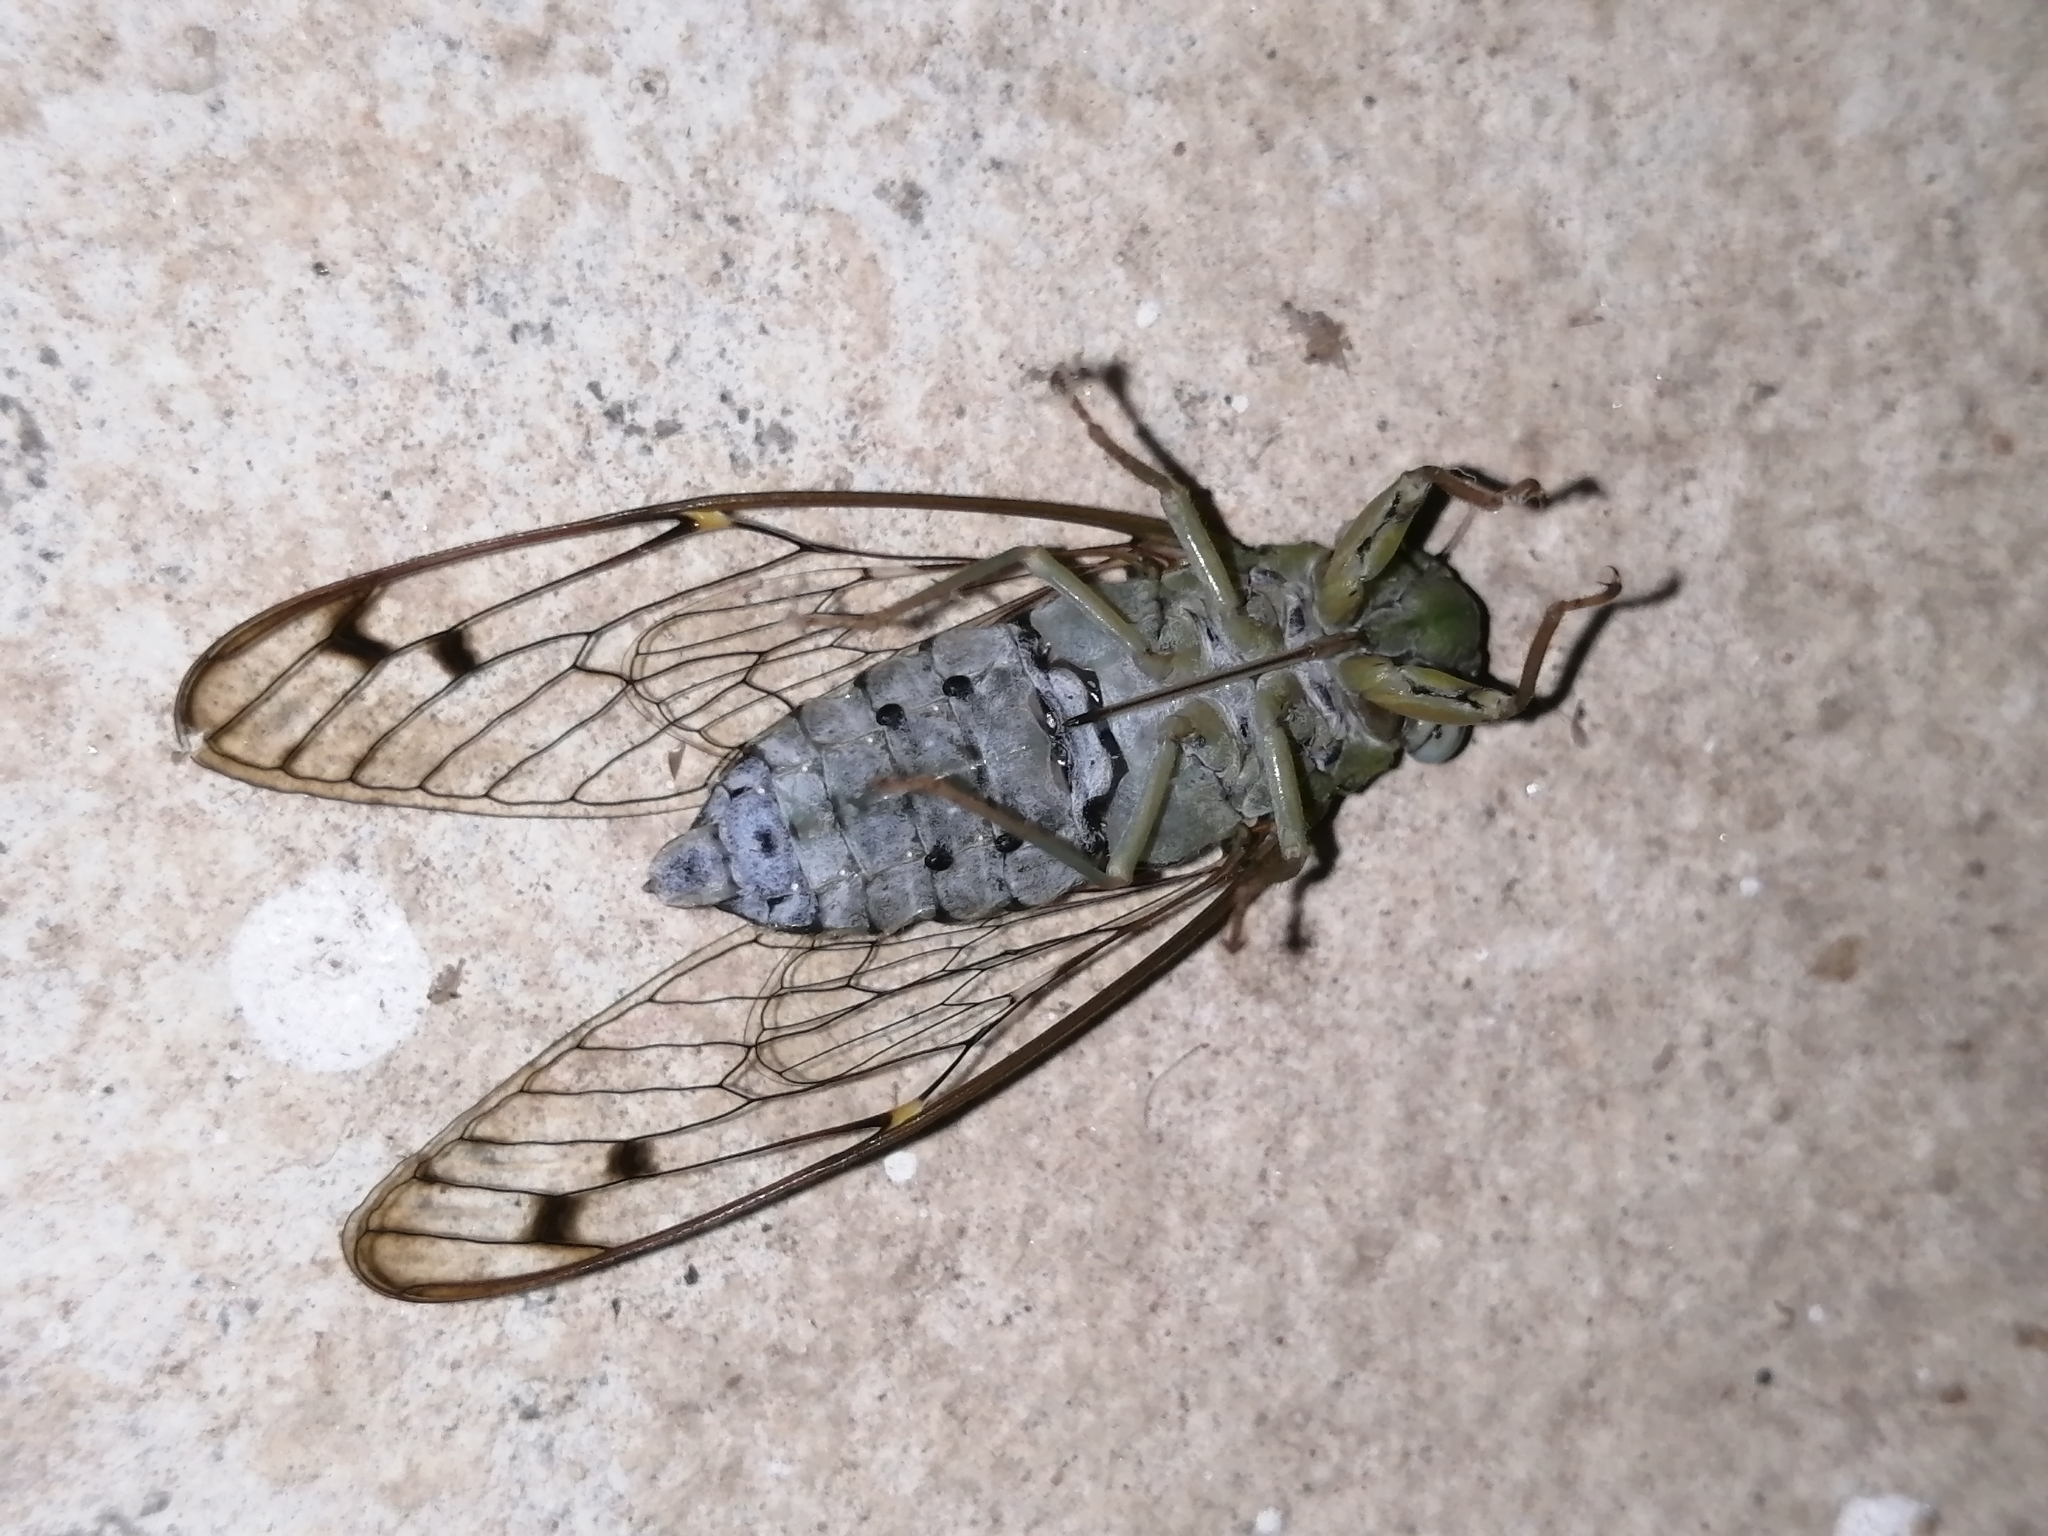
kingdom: Animalia
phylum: Arthropoda
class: Insecta
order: Hemiptera
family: Cicadidae
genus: Purana
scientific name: Purana tigrina
